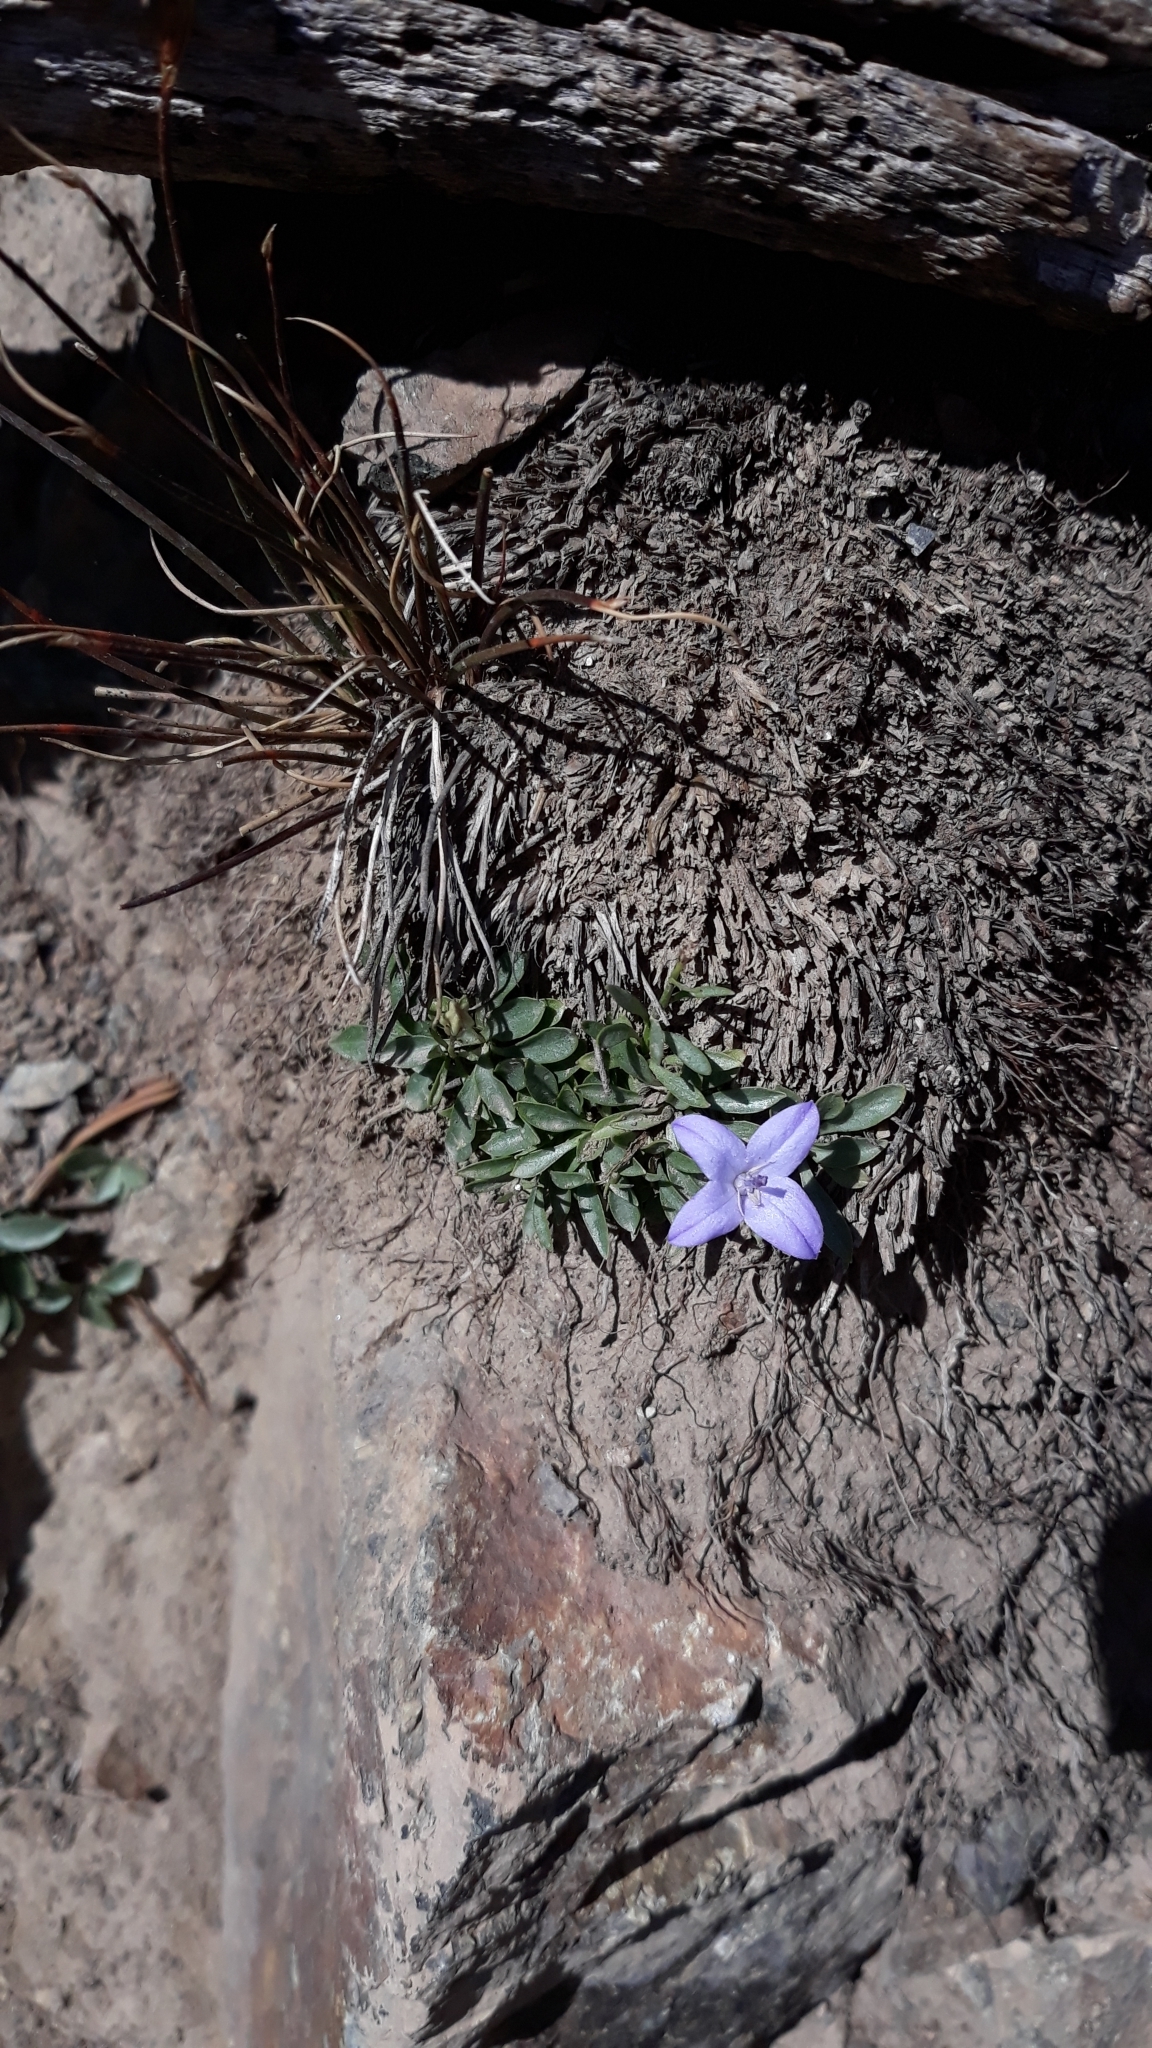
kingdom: Plantae
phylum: Tracheophyta
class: Magnoliopsida
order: Asterales
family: Campanulaceae
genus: Campanula
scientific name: Campanula scabrella
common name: Downy alpine bellflower
